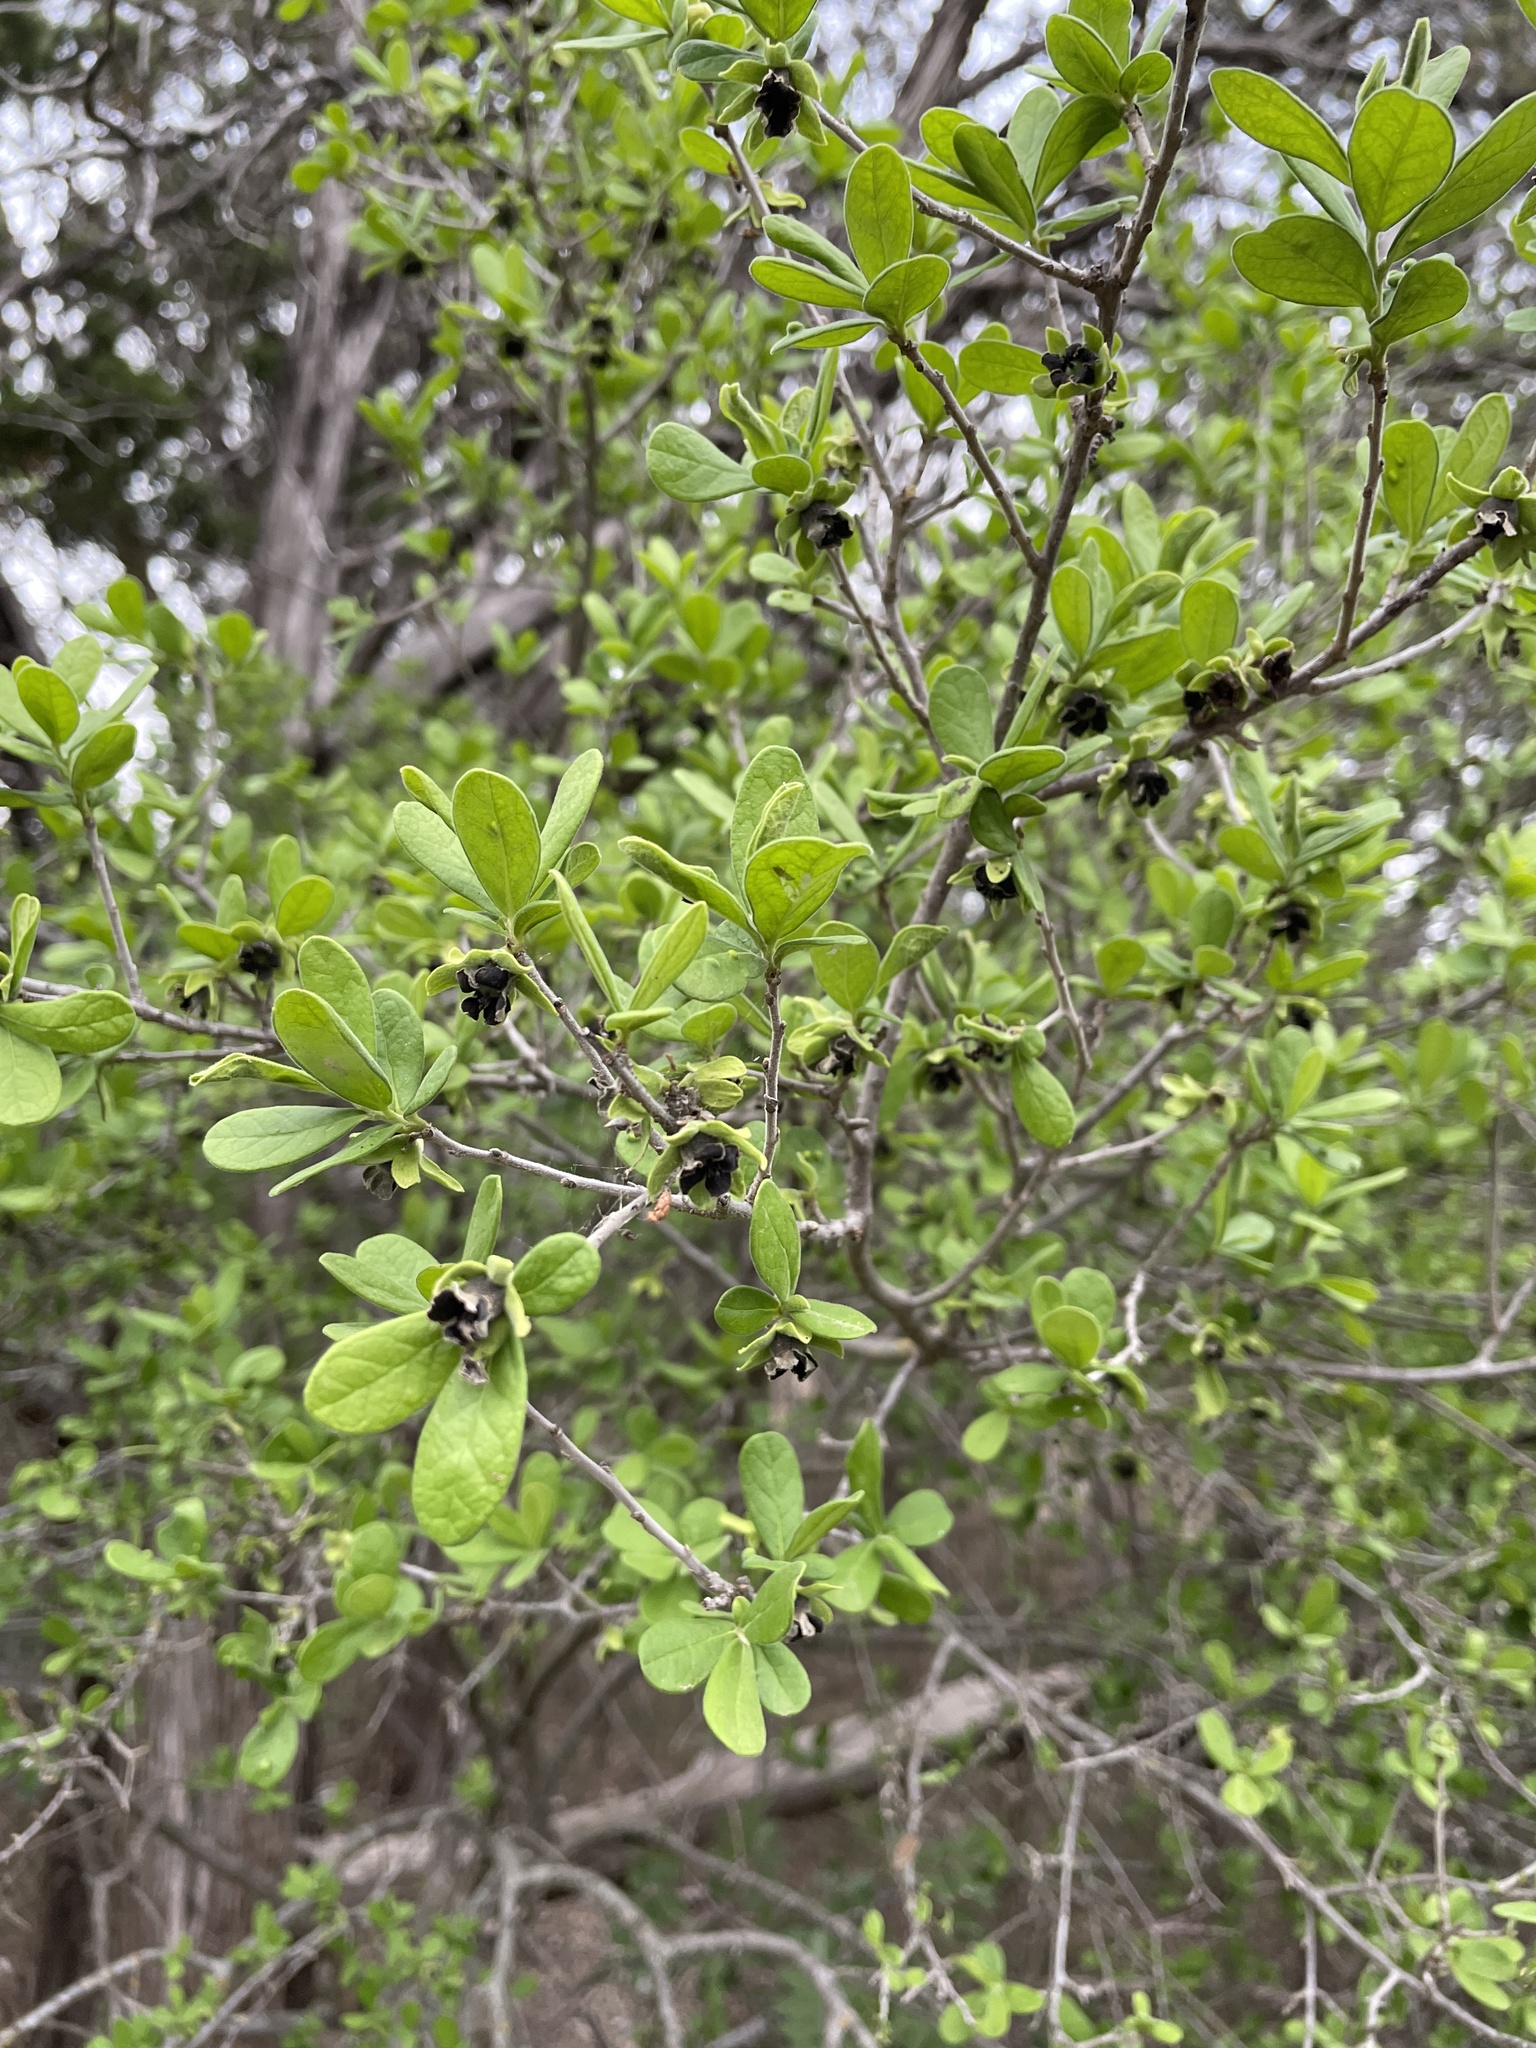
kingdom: Plantae
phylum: Tracheophyta
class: Magnoliopsida
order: Ericales
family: Ebenaceae
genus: Diospyros
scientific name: Diospyros texana
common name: Texas persimmon
